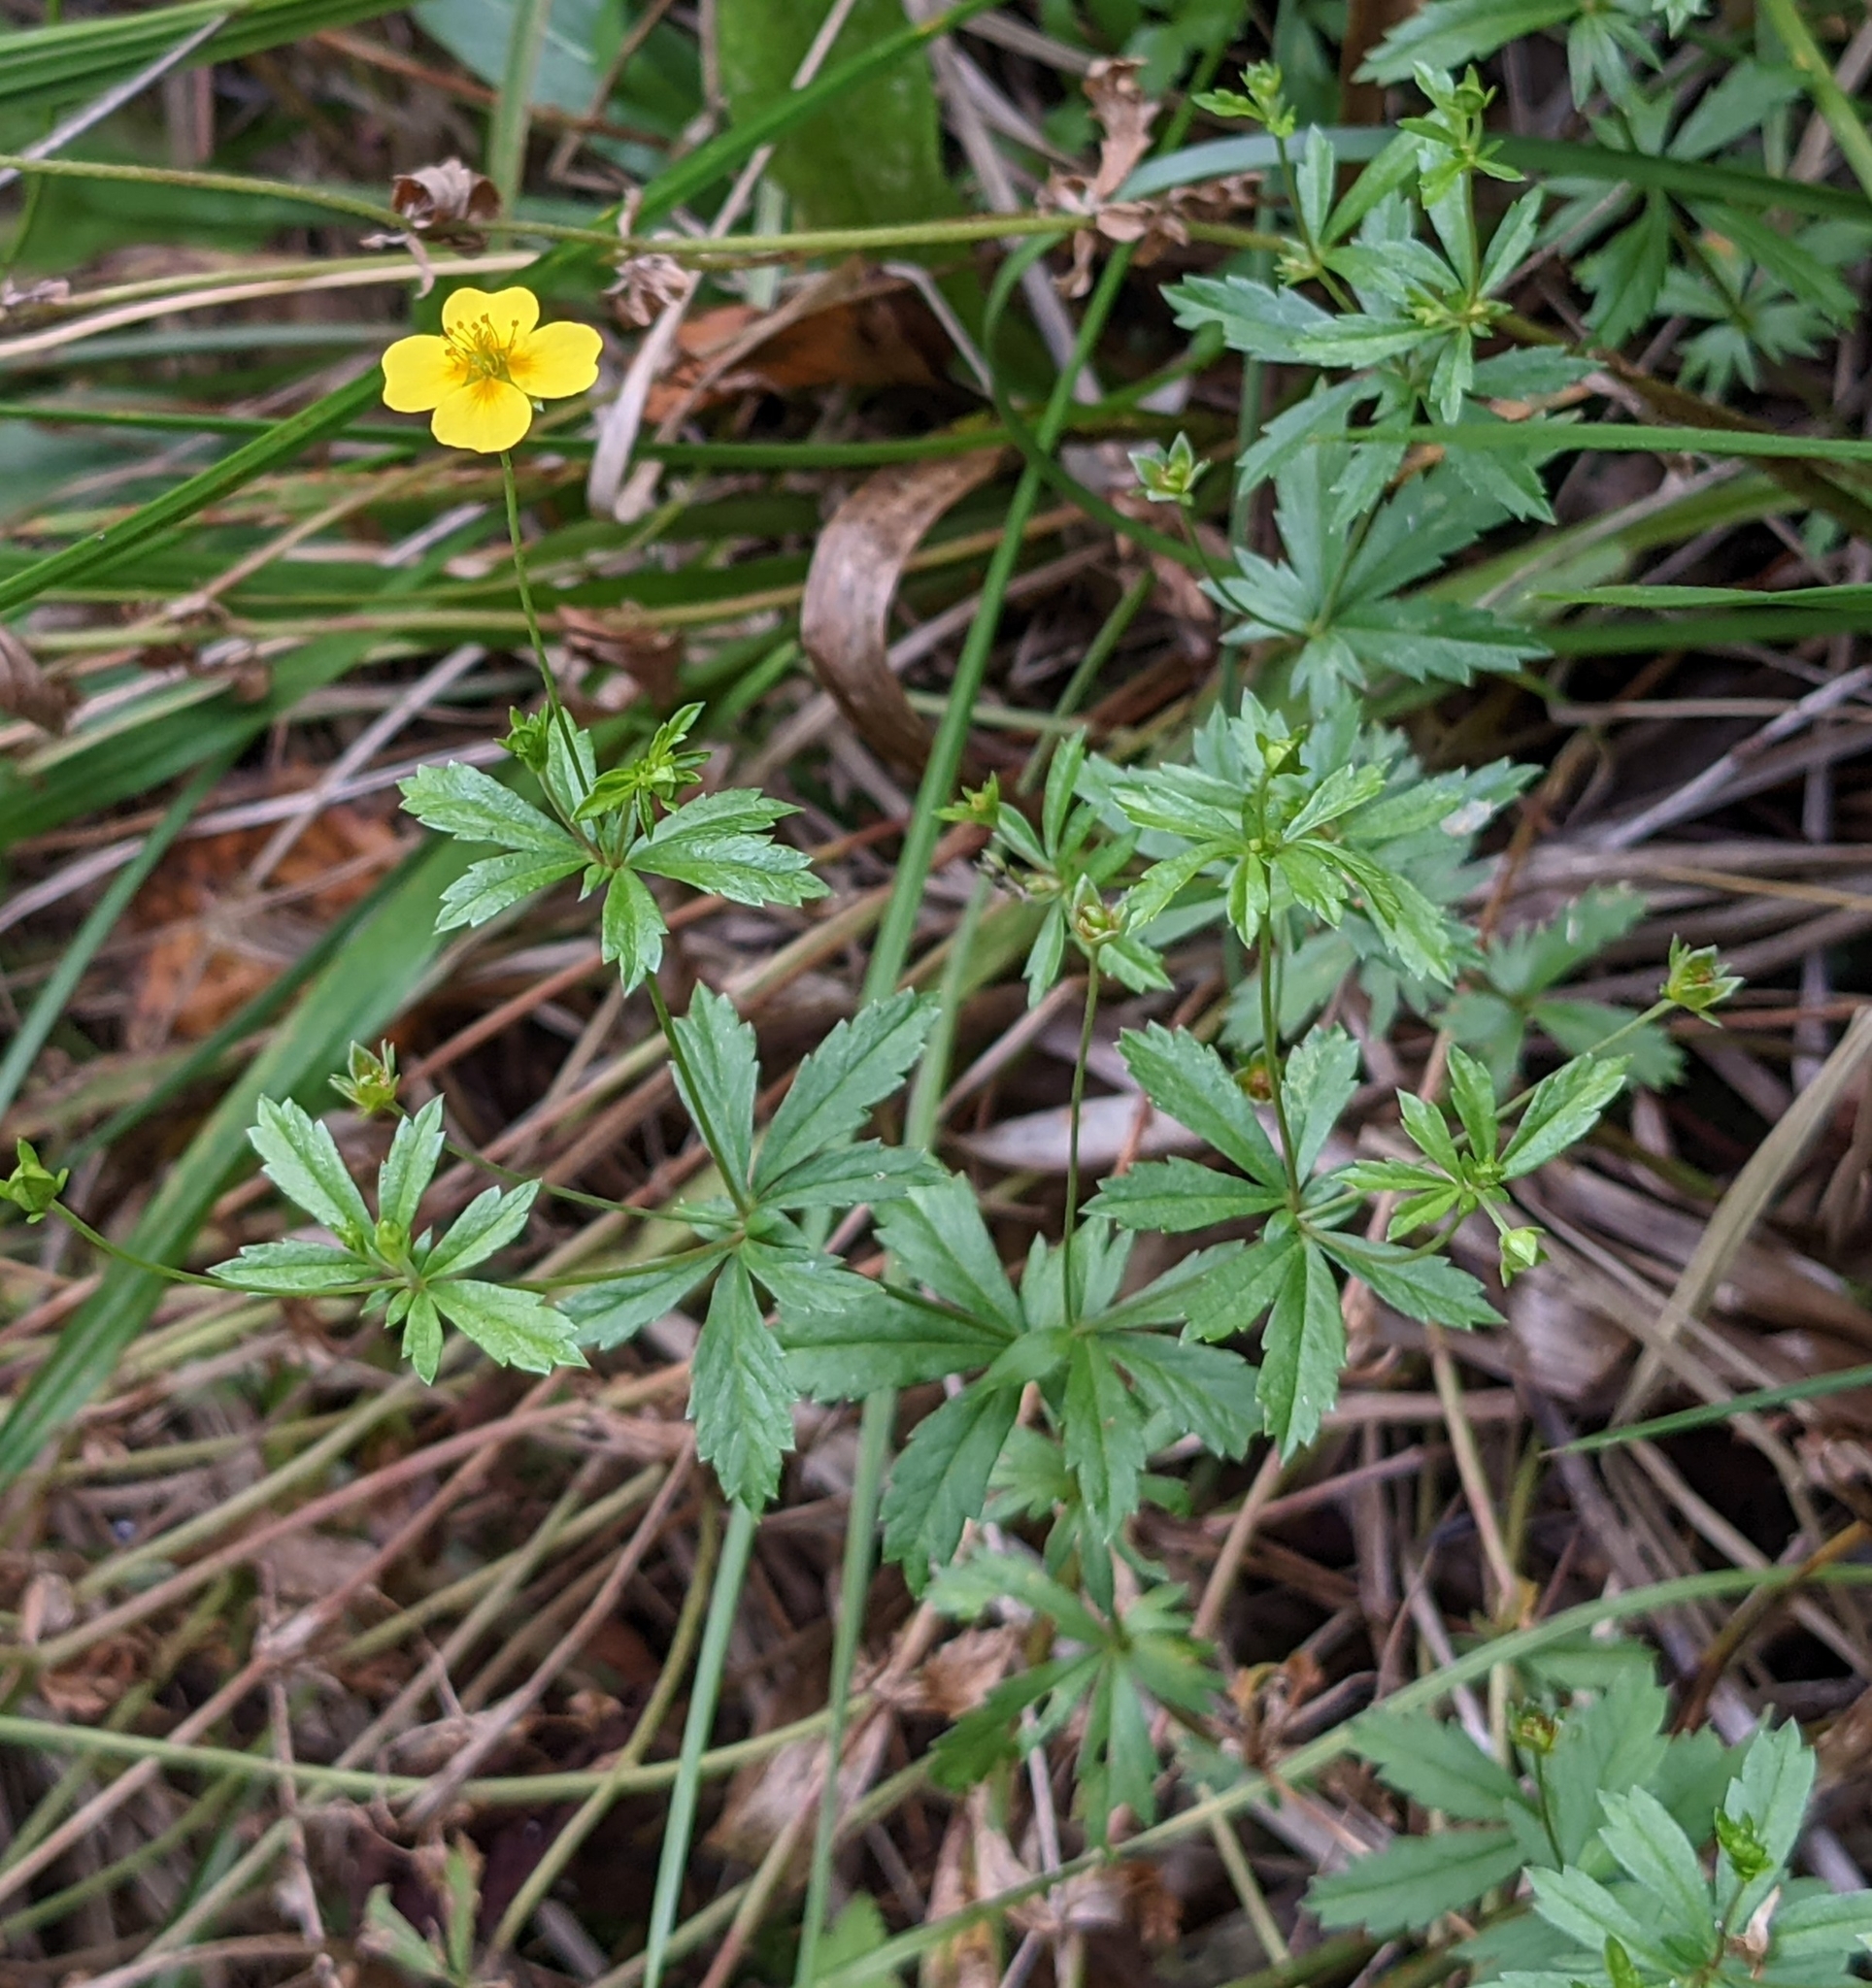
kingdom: Plantae
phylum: Tracheophyta
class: Magnoliopsida
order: Rosales
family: Rosaceae
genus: Potentilla
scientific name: Potentilla erecta
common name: Tormentil
